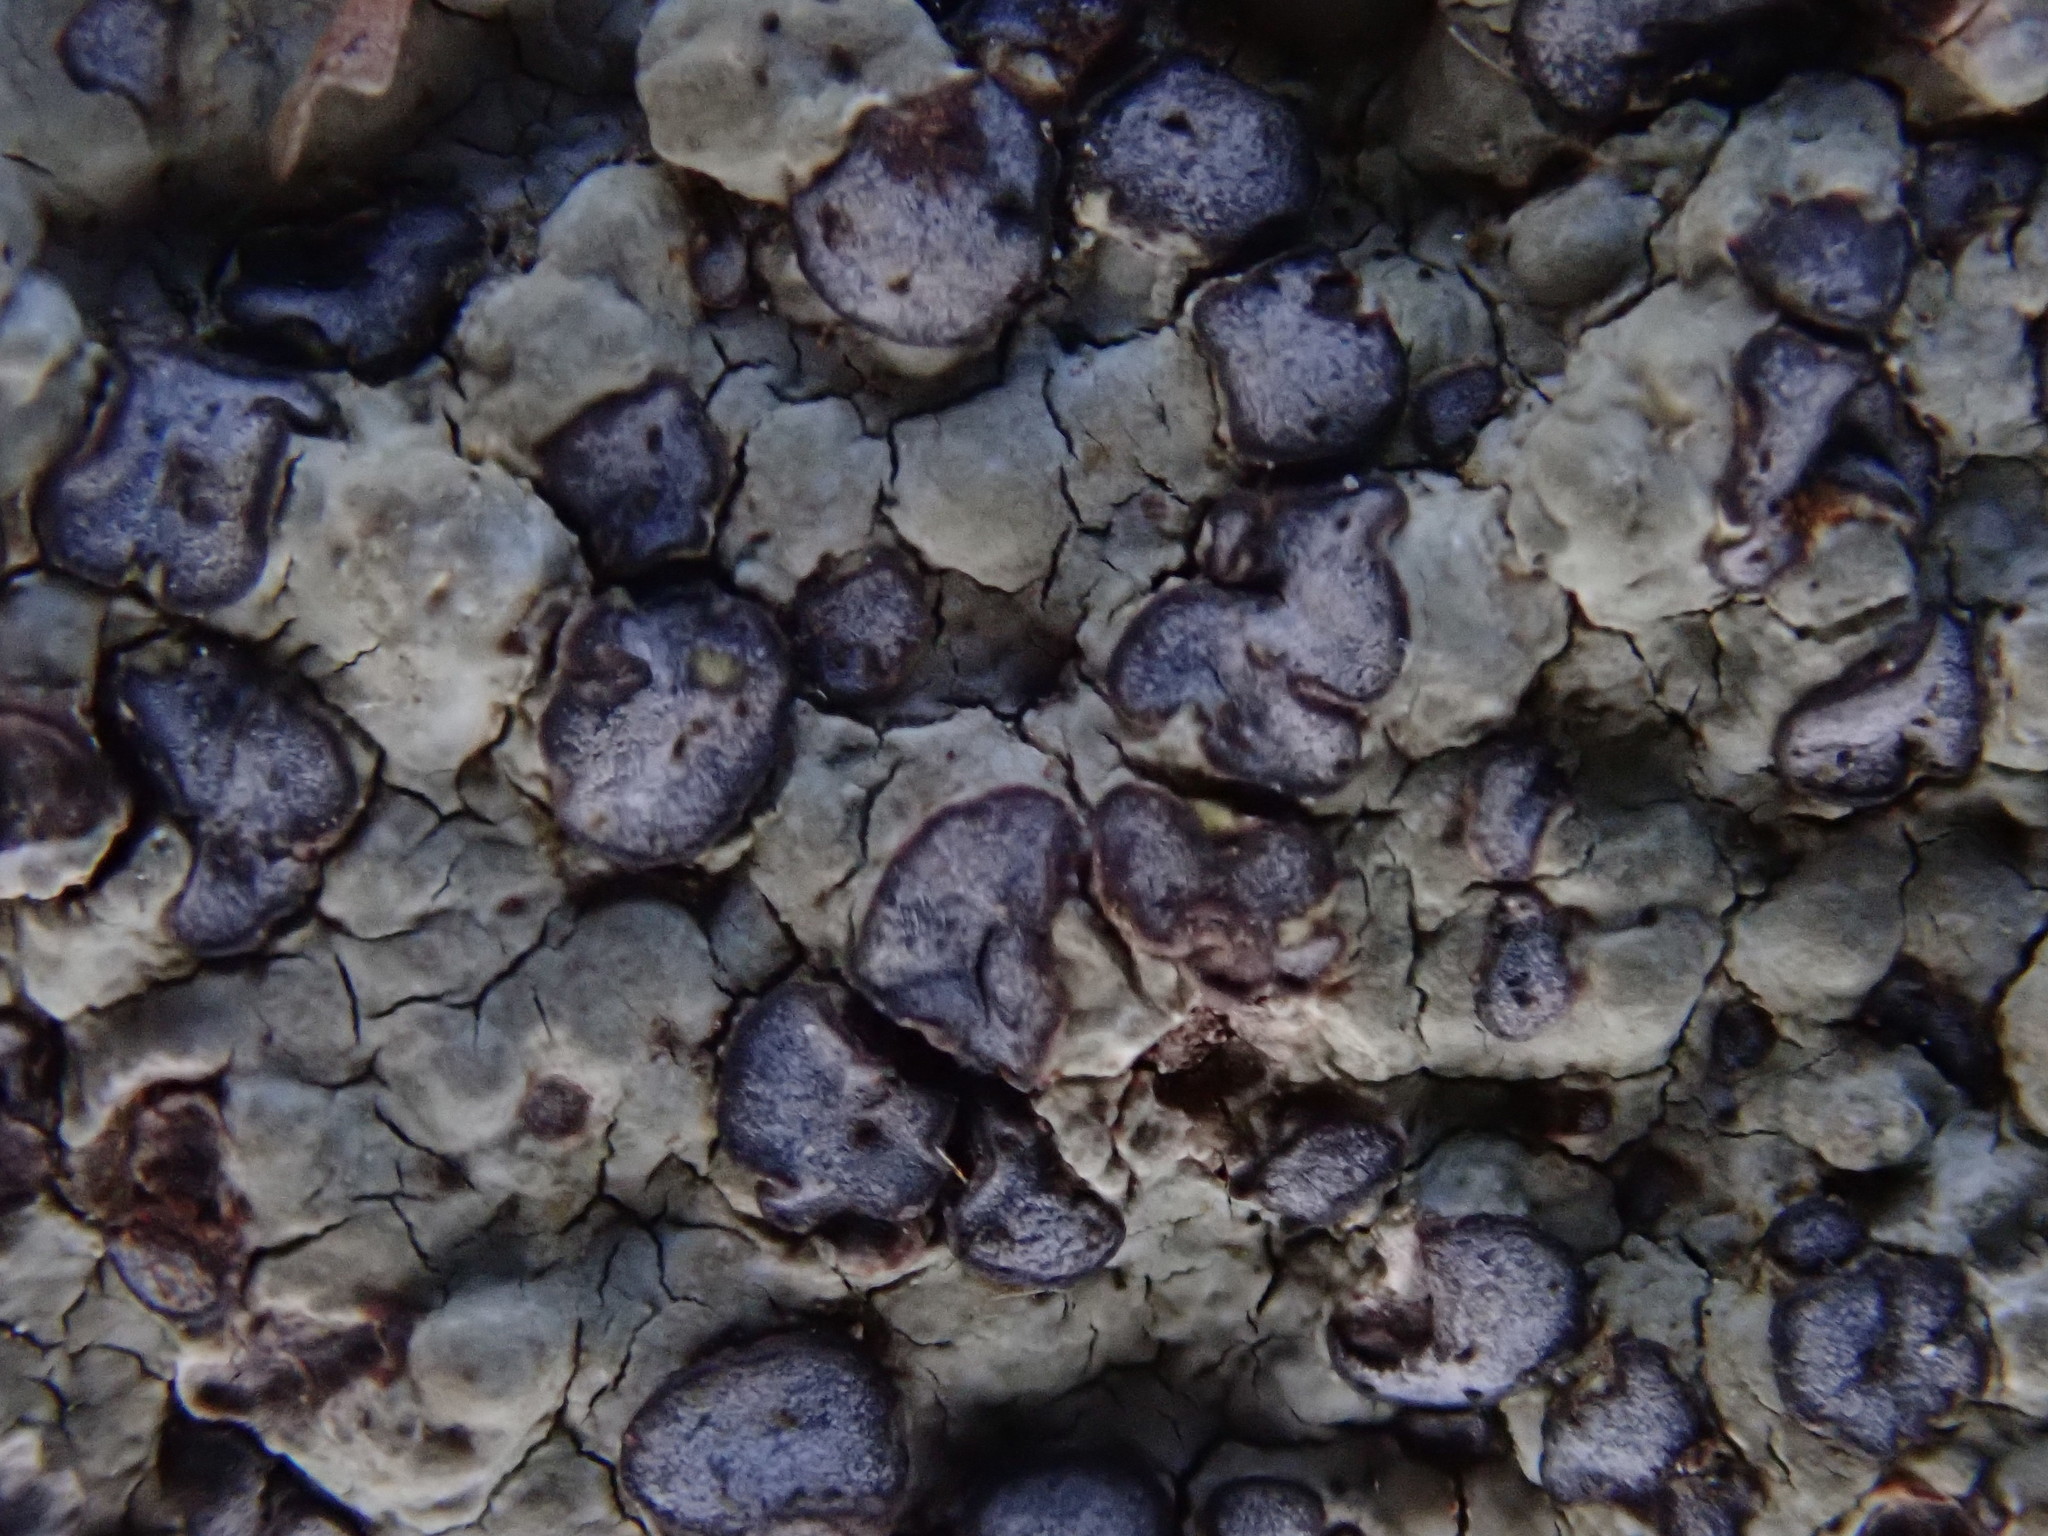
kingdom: Fungi
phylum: Ascomycota
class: Lecanoromycetes
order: Lecideales
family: Lecideaceae
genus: Porpidia
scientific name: Porpidia albocaerulescens
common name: Smokey-eyed boulder lichen
